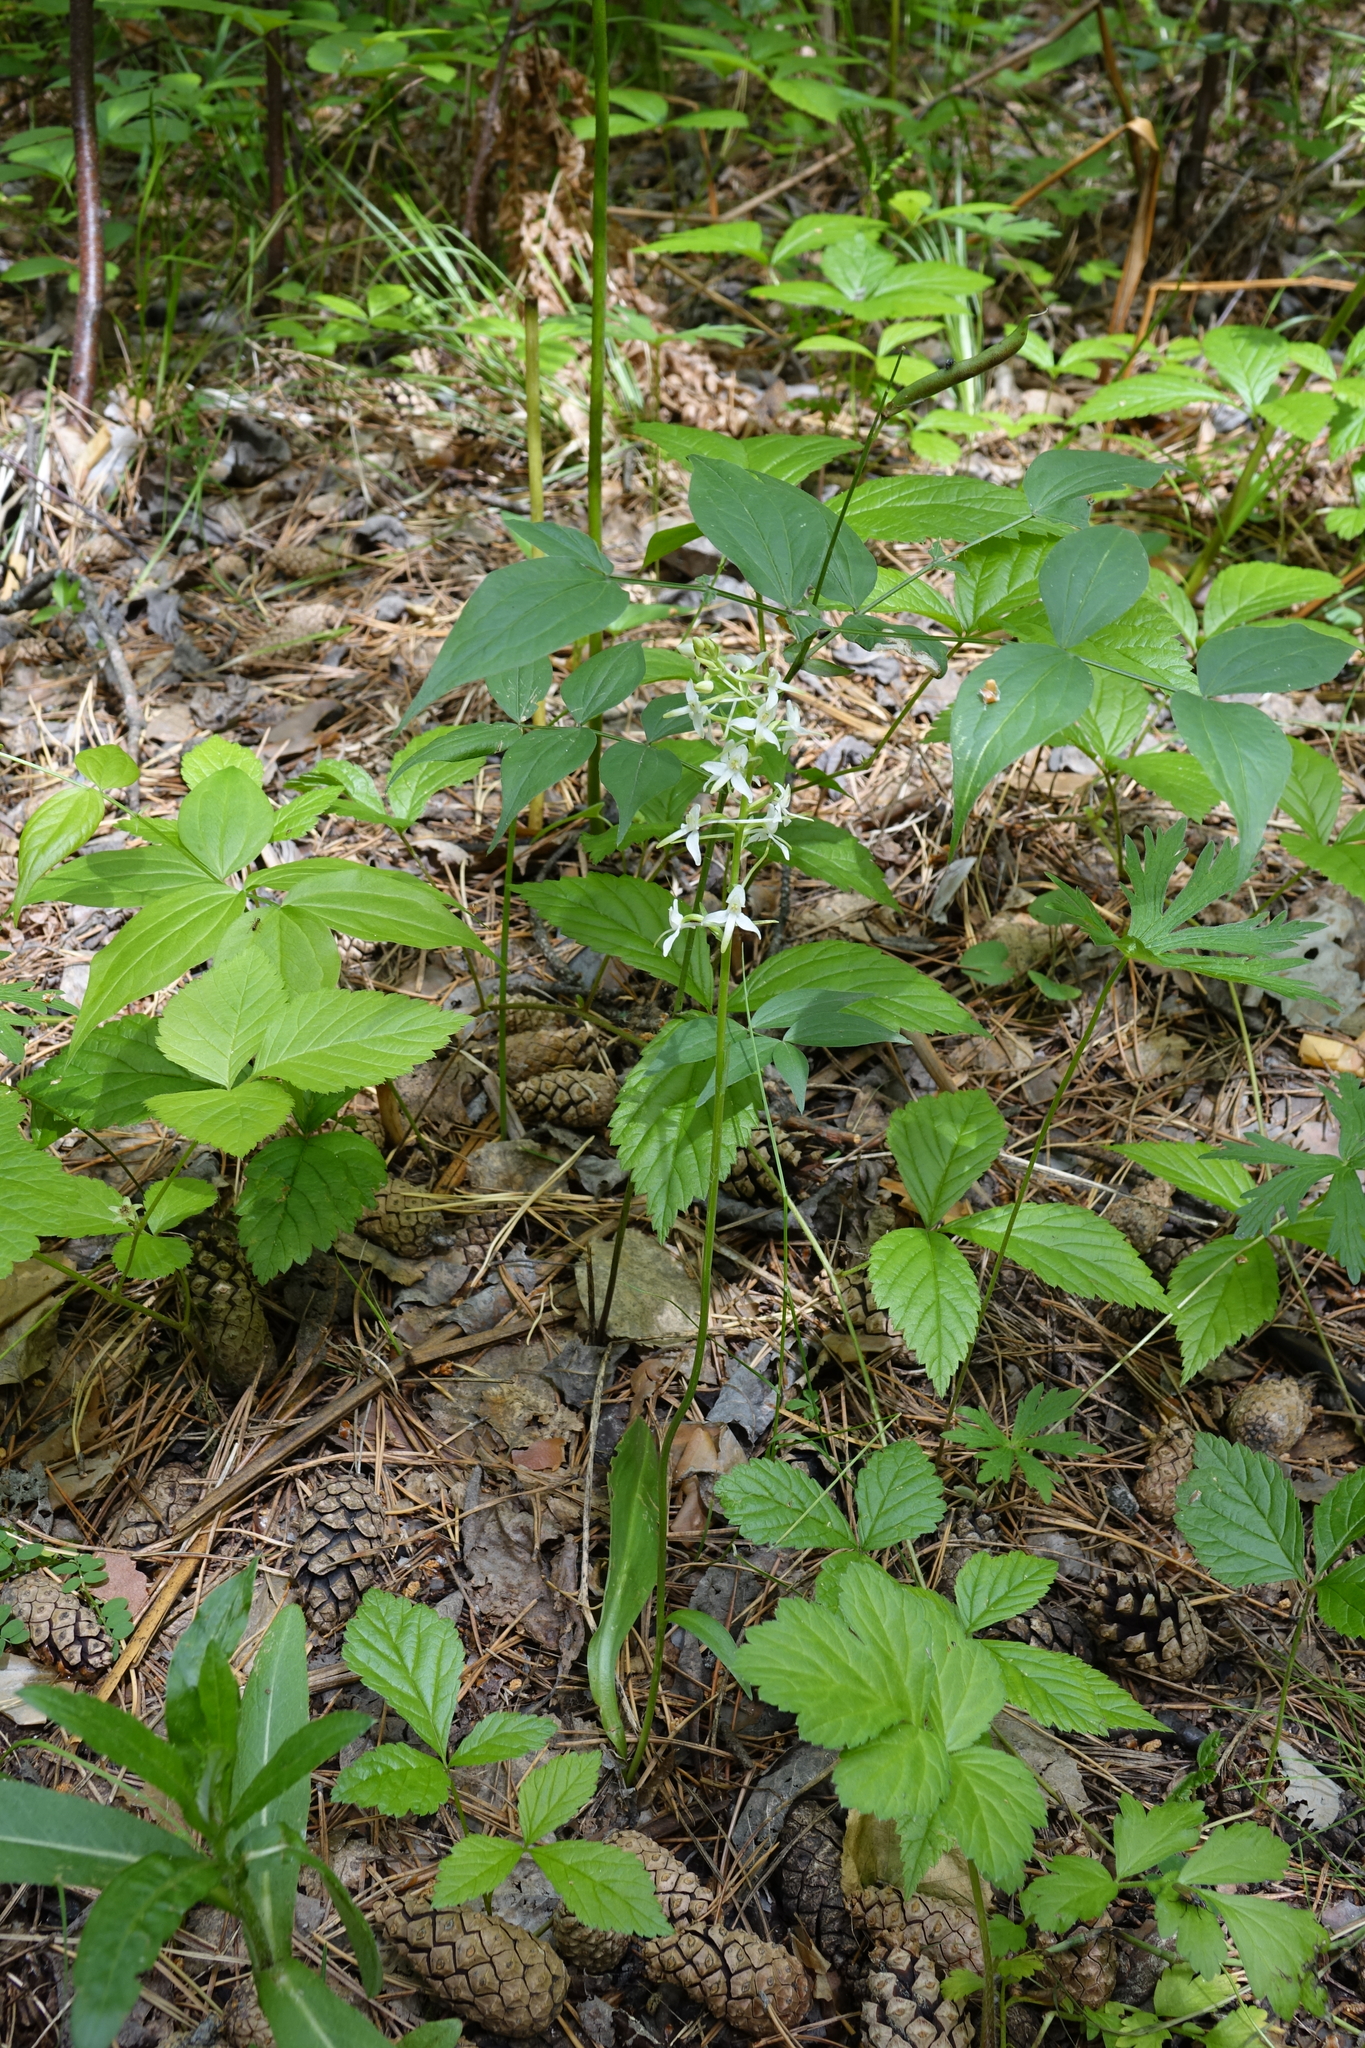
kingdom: Plantae
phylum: Tracheophyta
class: Liliopsida
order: Asparagales
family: Orchidaceae
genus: Platanthera
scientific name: Platanthera bifolia
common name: Lesser butterfly-orchid
